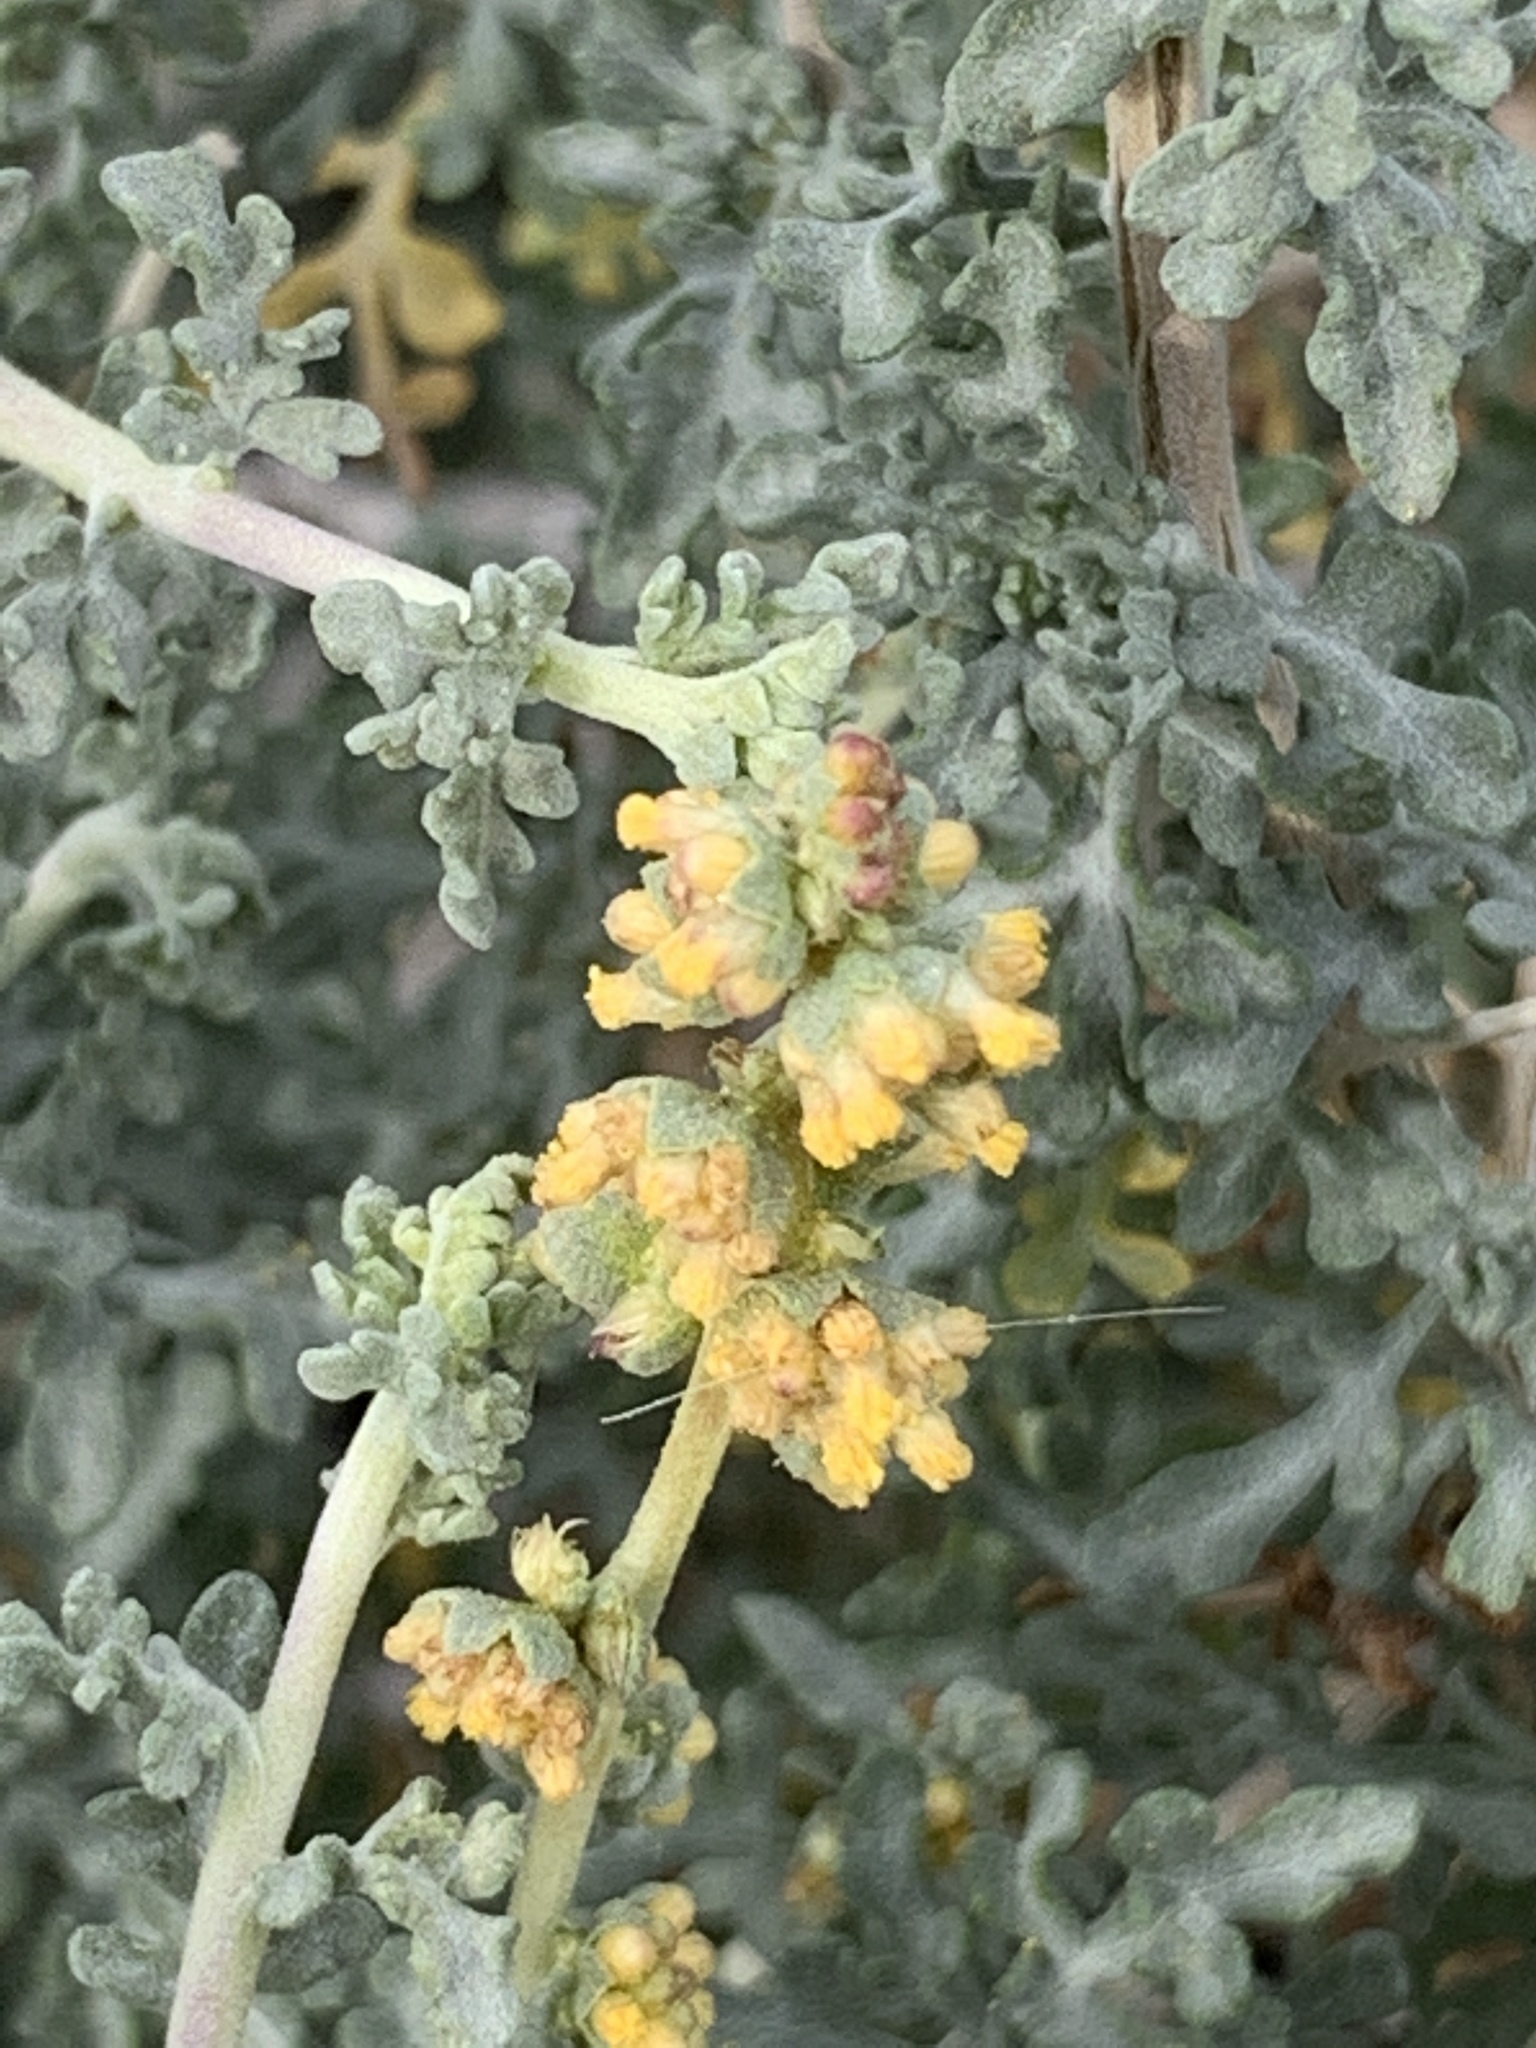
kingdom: Plantae
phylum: Tracheophyta
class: Magnoliopsida
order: Asterales
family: Asteraceae
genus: Ambrosia
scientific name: Ambrosia dumosa
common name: Bur-sage
